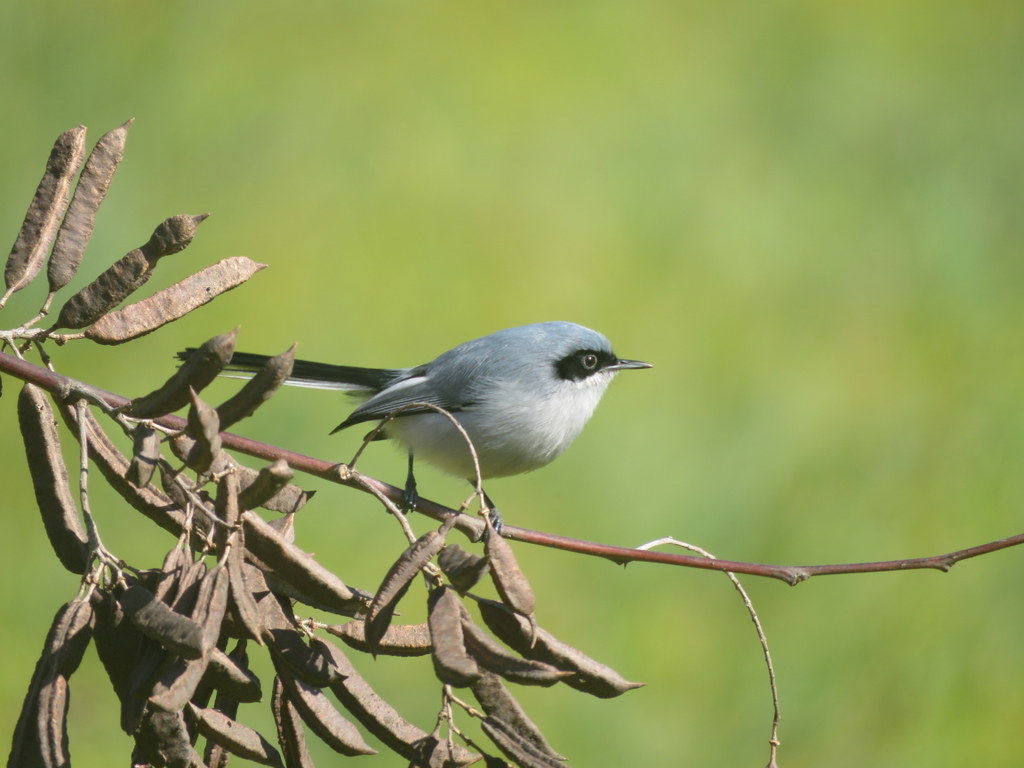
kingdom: Animalia
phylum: Chordata
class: Aves
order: Passeriformes
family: Polioptilidae
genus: Polioptila
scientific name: Polioptila dumicola
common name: Masked gnatcatcher
